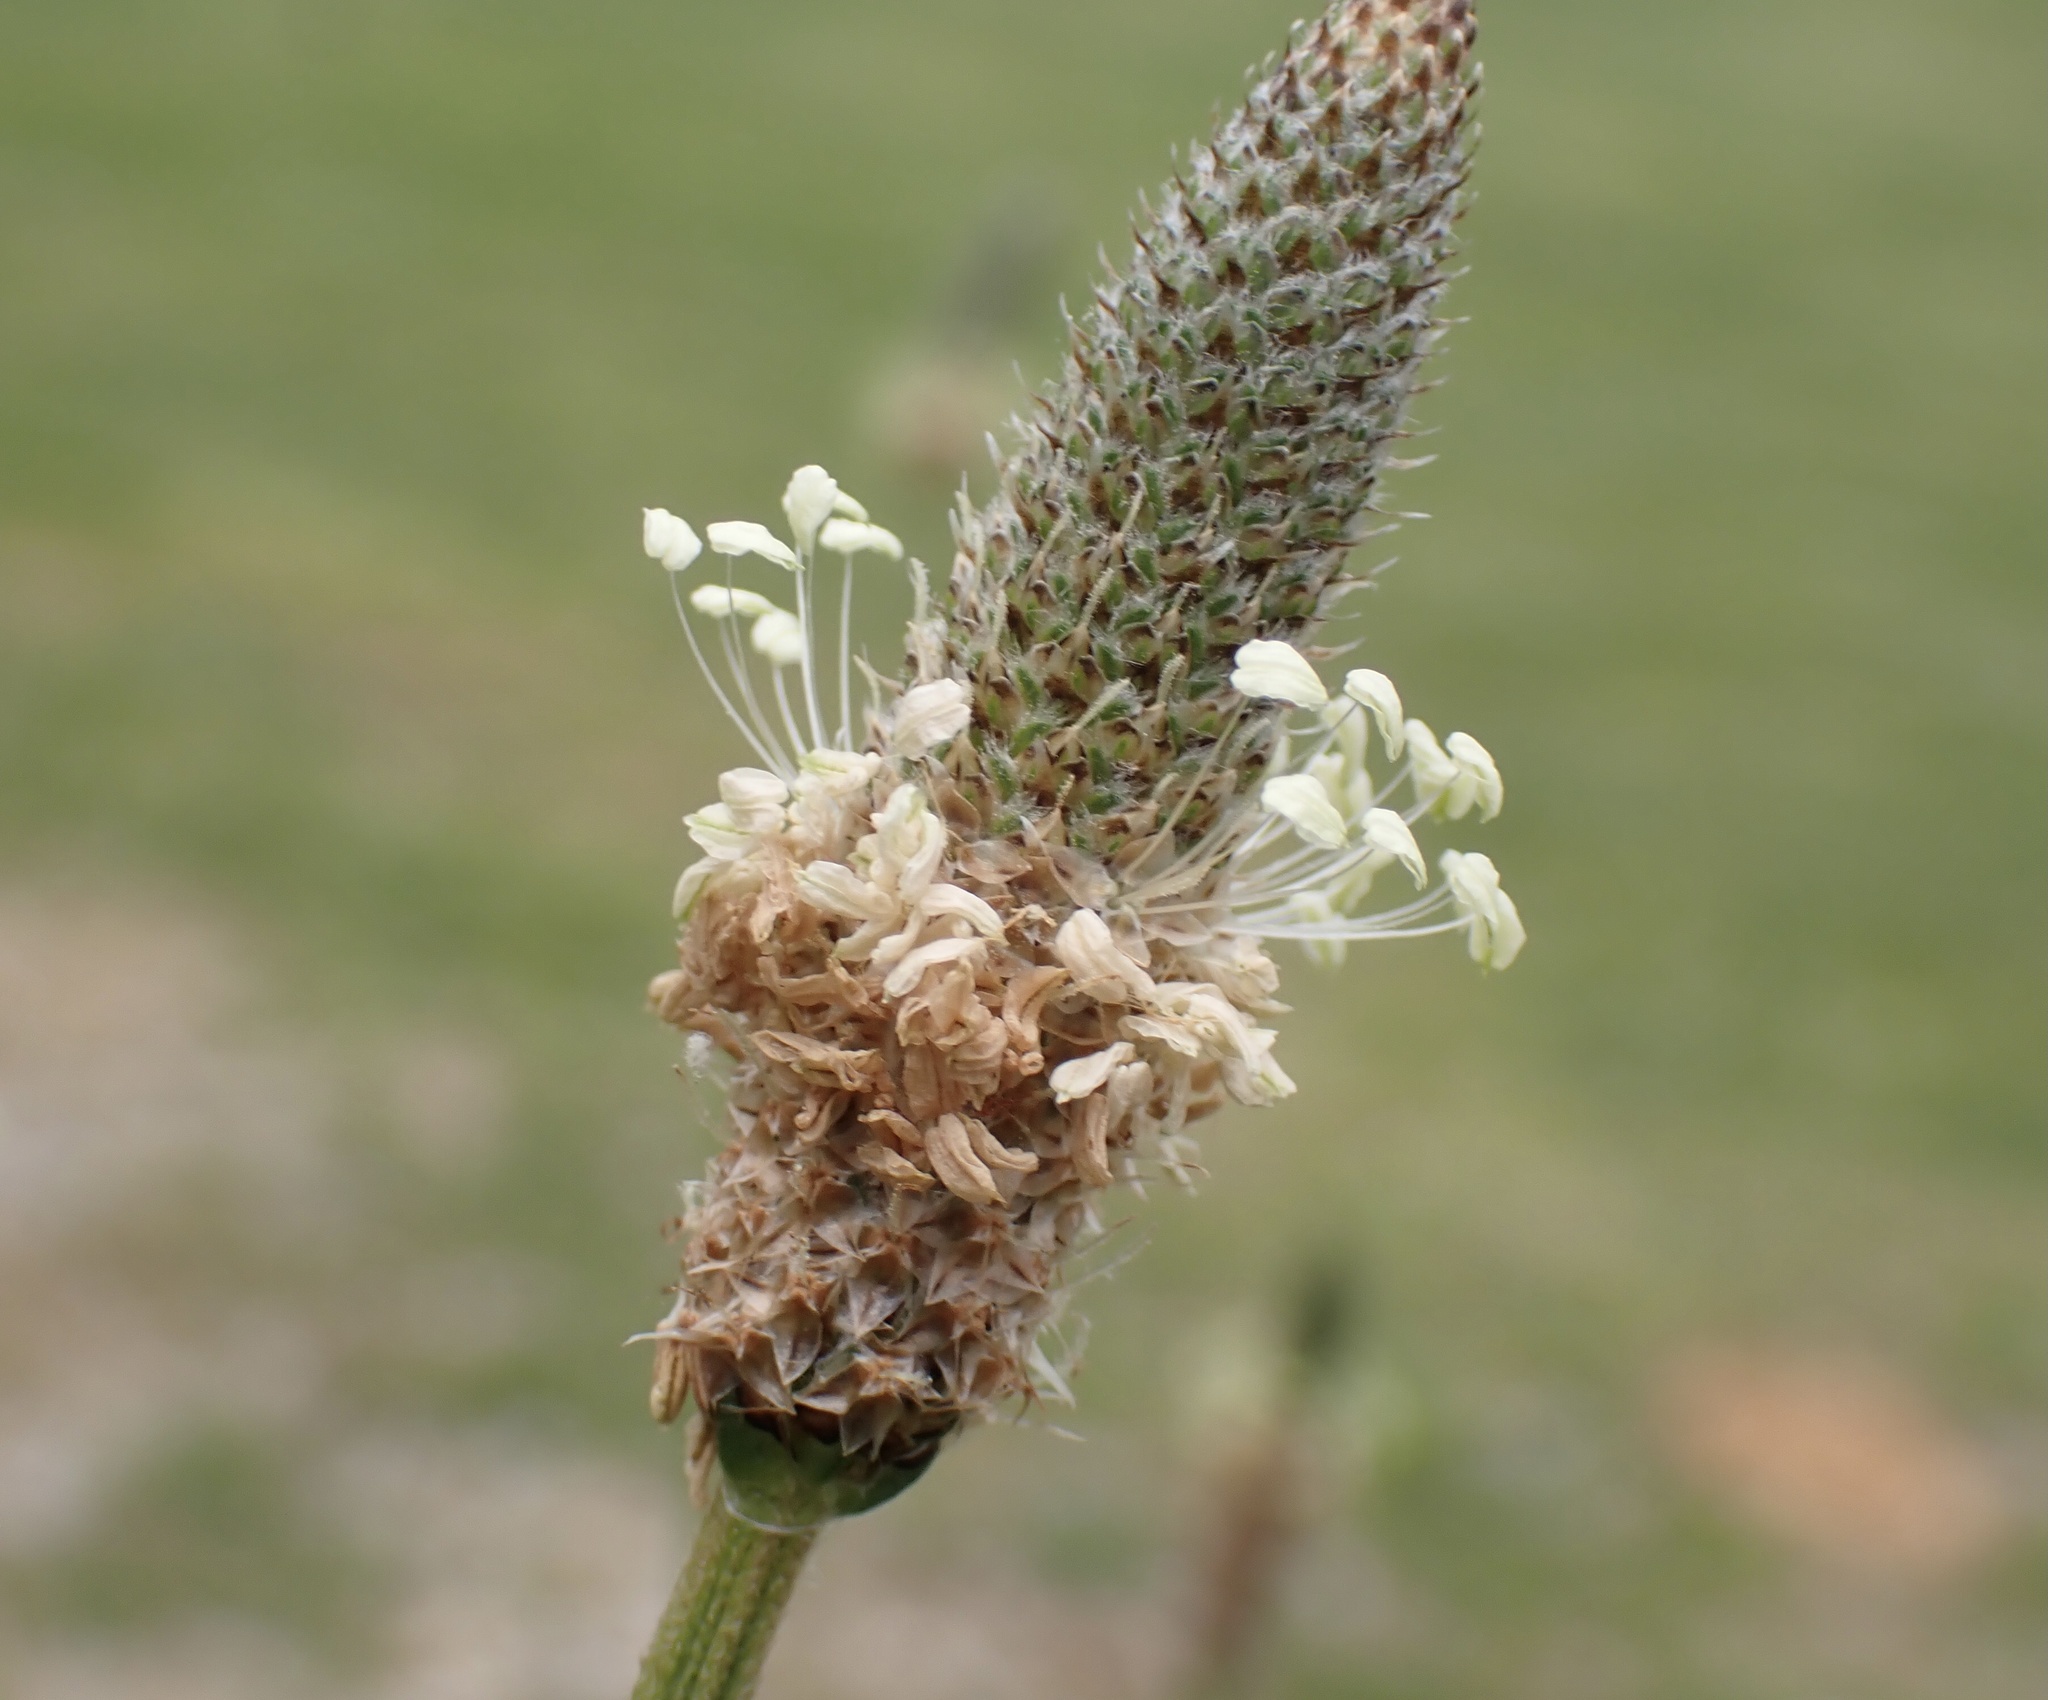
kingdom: Plantae
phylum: Tracheophyta
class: Magnoliopsida
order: Lamiales
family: Plantaginaceae
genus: Plantago
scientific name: Plantago lanceolata
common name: Ribwort plantain
